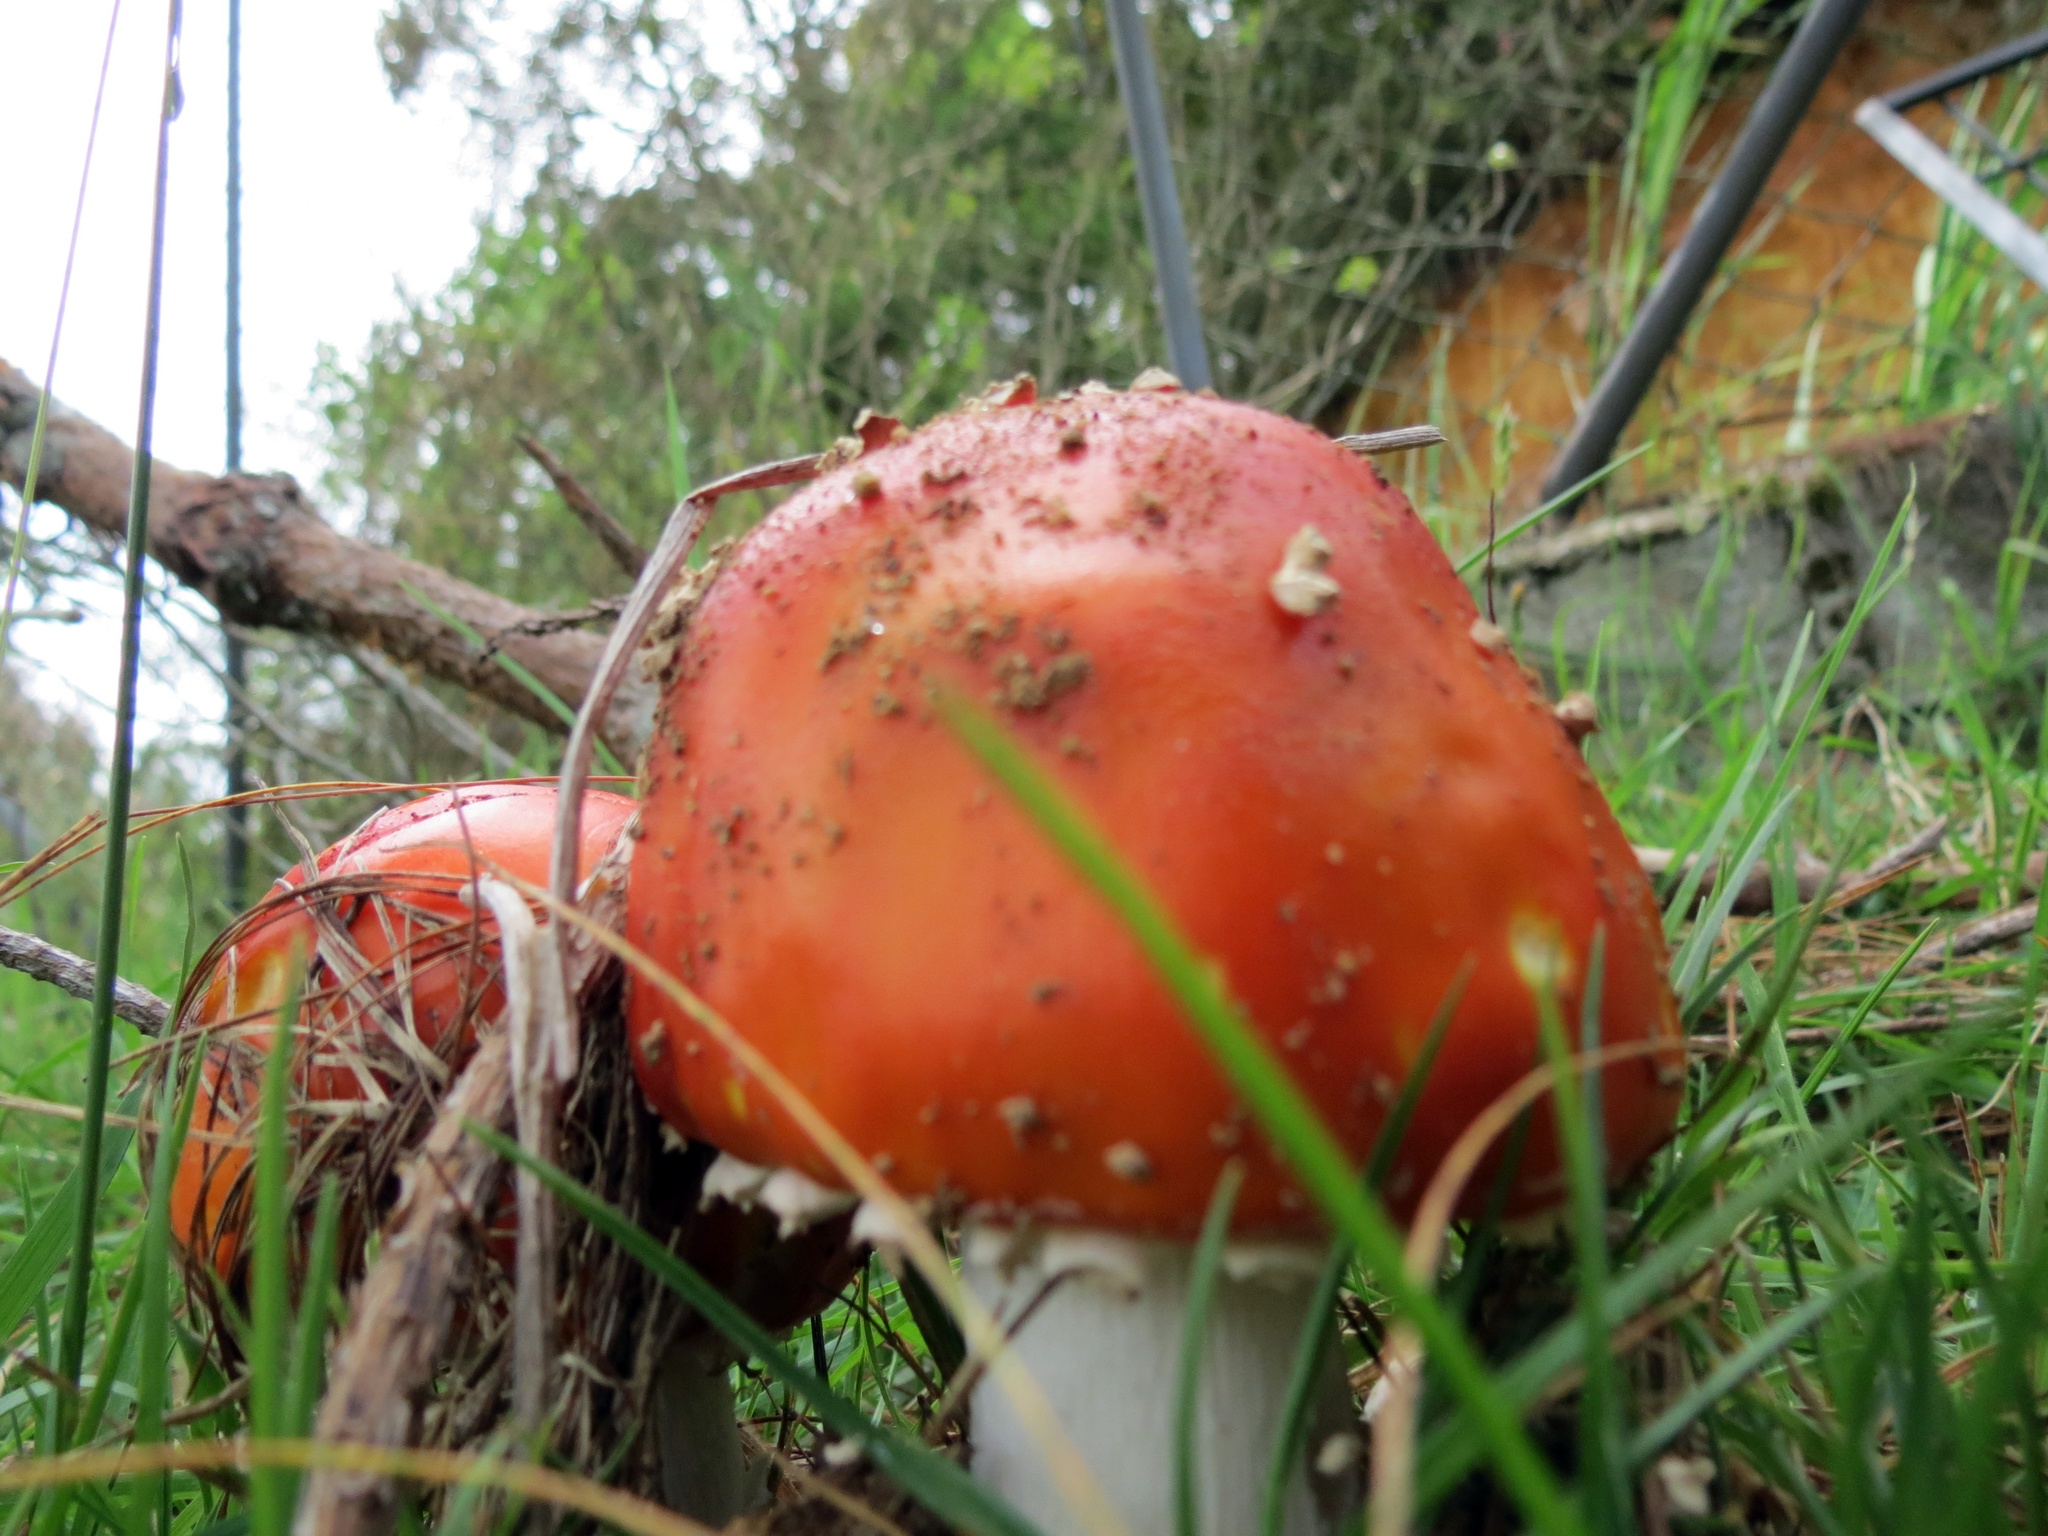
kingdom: Fungi
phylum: Basidiomycota
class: Agaricomycetes
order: Agaricales
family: Amanitaceae
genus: Amanita
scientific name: Amanita muscaria
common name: Fly agaric
